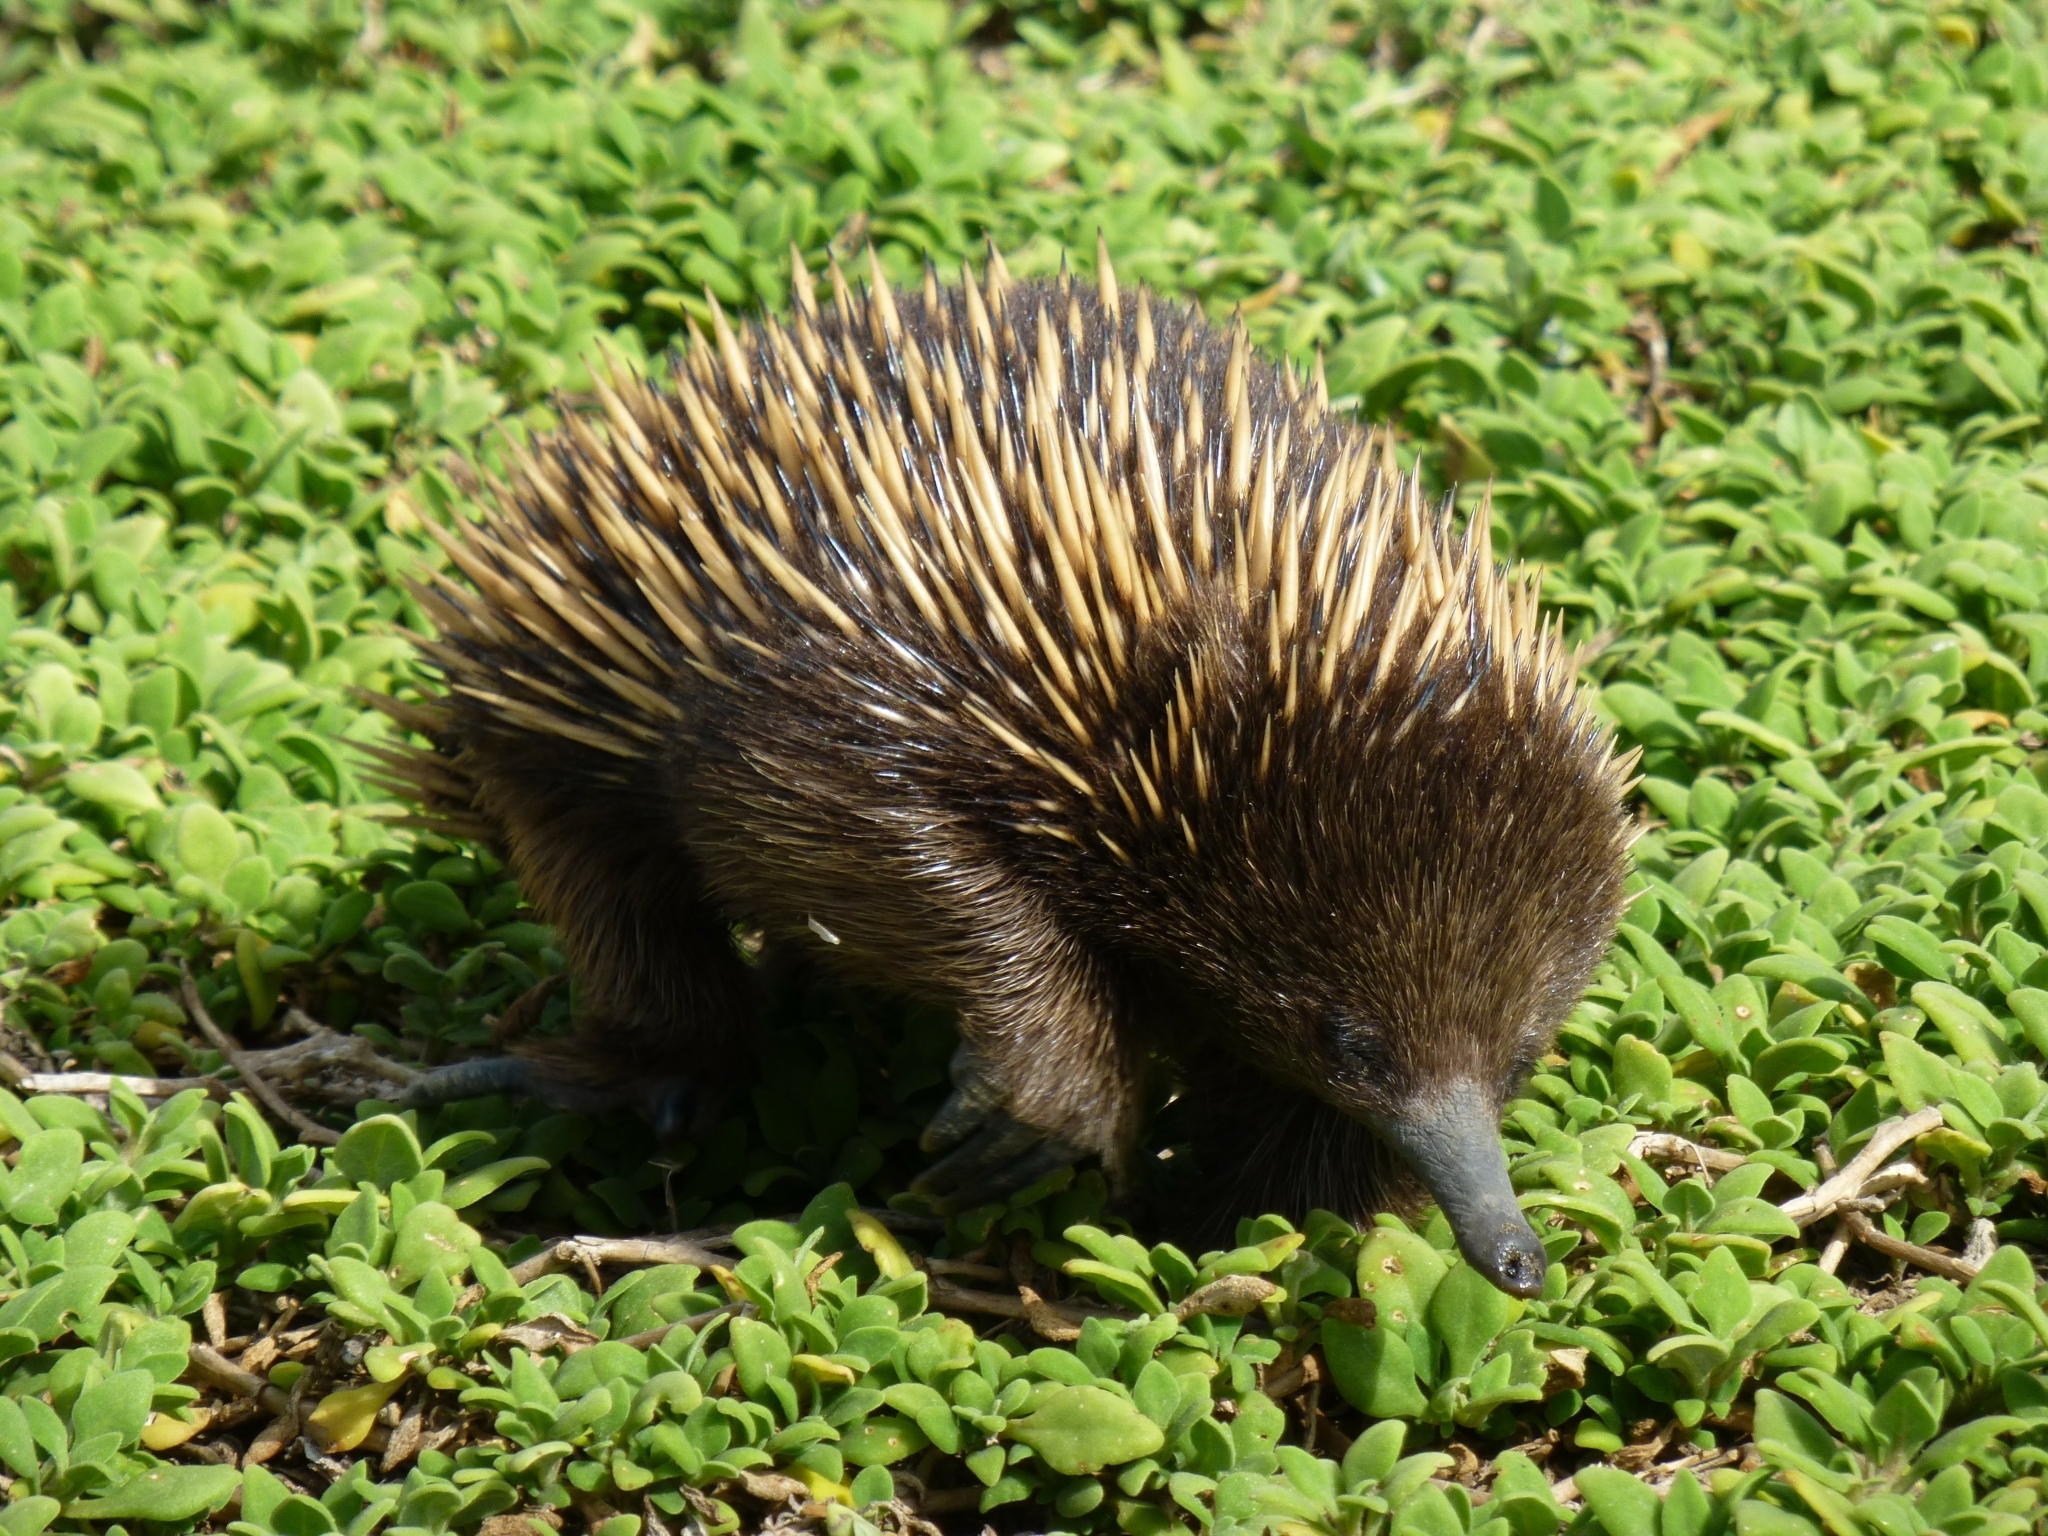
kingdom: Animalia
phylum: Chordata
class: Mammalia
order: Monotremata
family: Tachyglossidae
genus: Tachyglossus
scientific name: Tachyglossus aculeatus
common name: Short-beaked echidna
